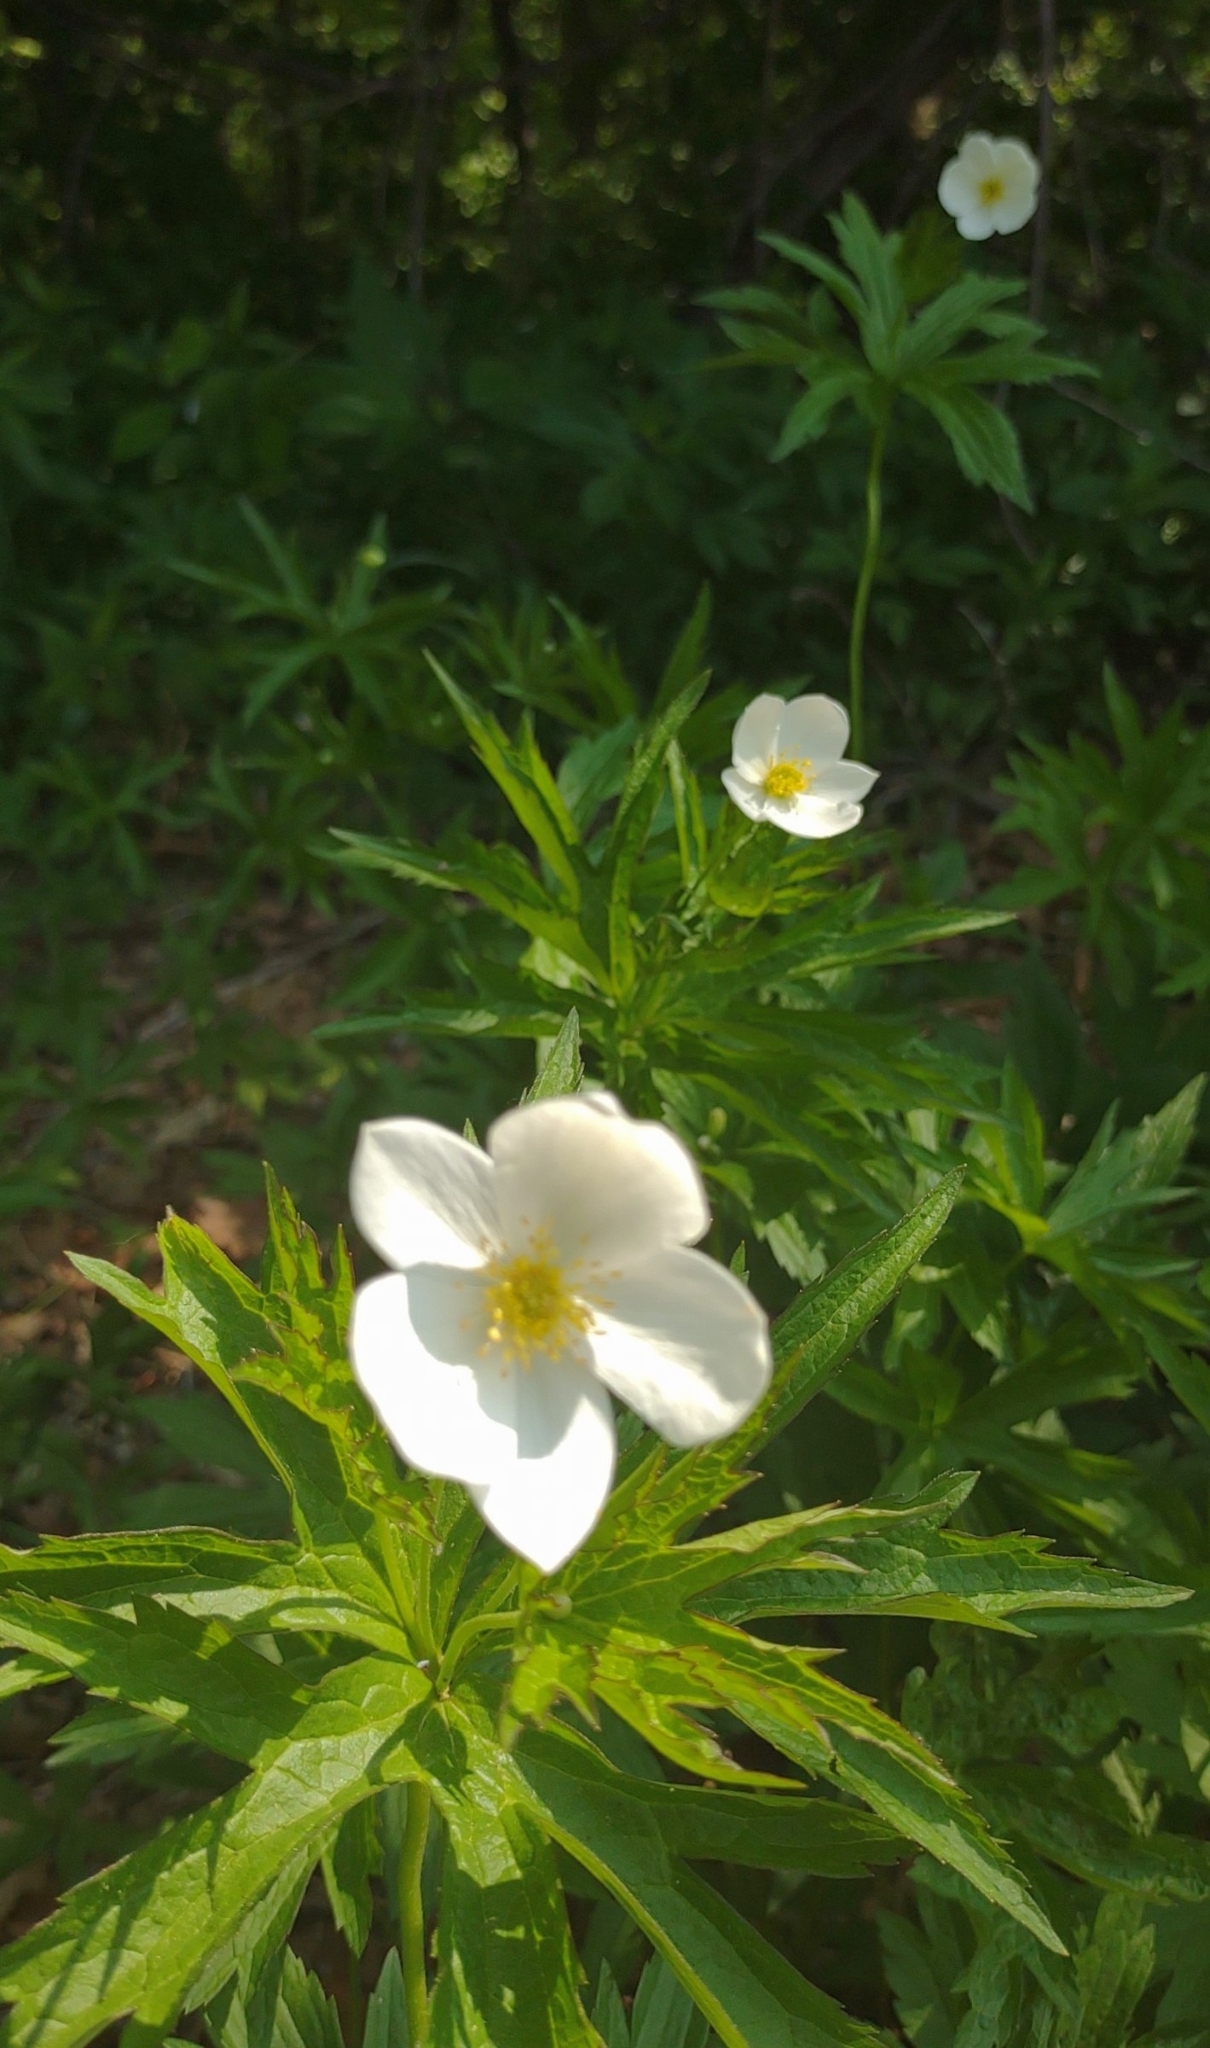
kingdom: Plantae
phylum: Tracheophyta
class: Magnoliopsida
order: Ranunculales
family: Ranunculaceae
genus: Anemonastrum
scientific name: Anemonastrum canadense
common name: Canada anemone
